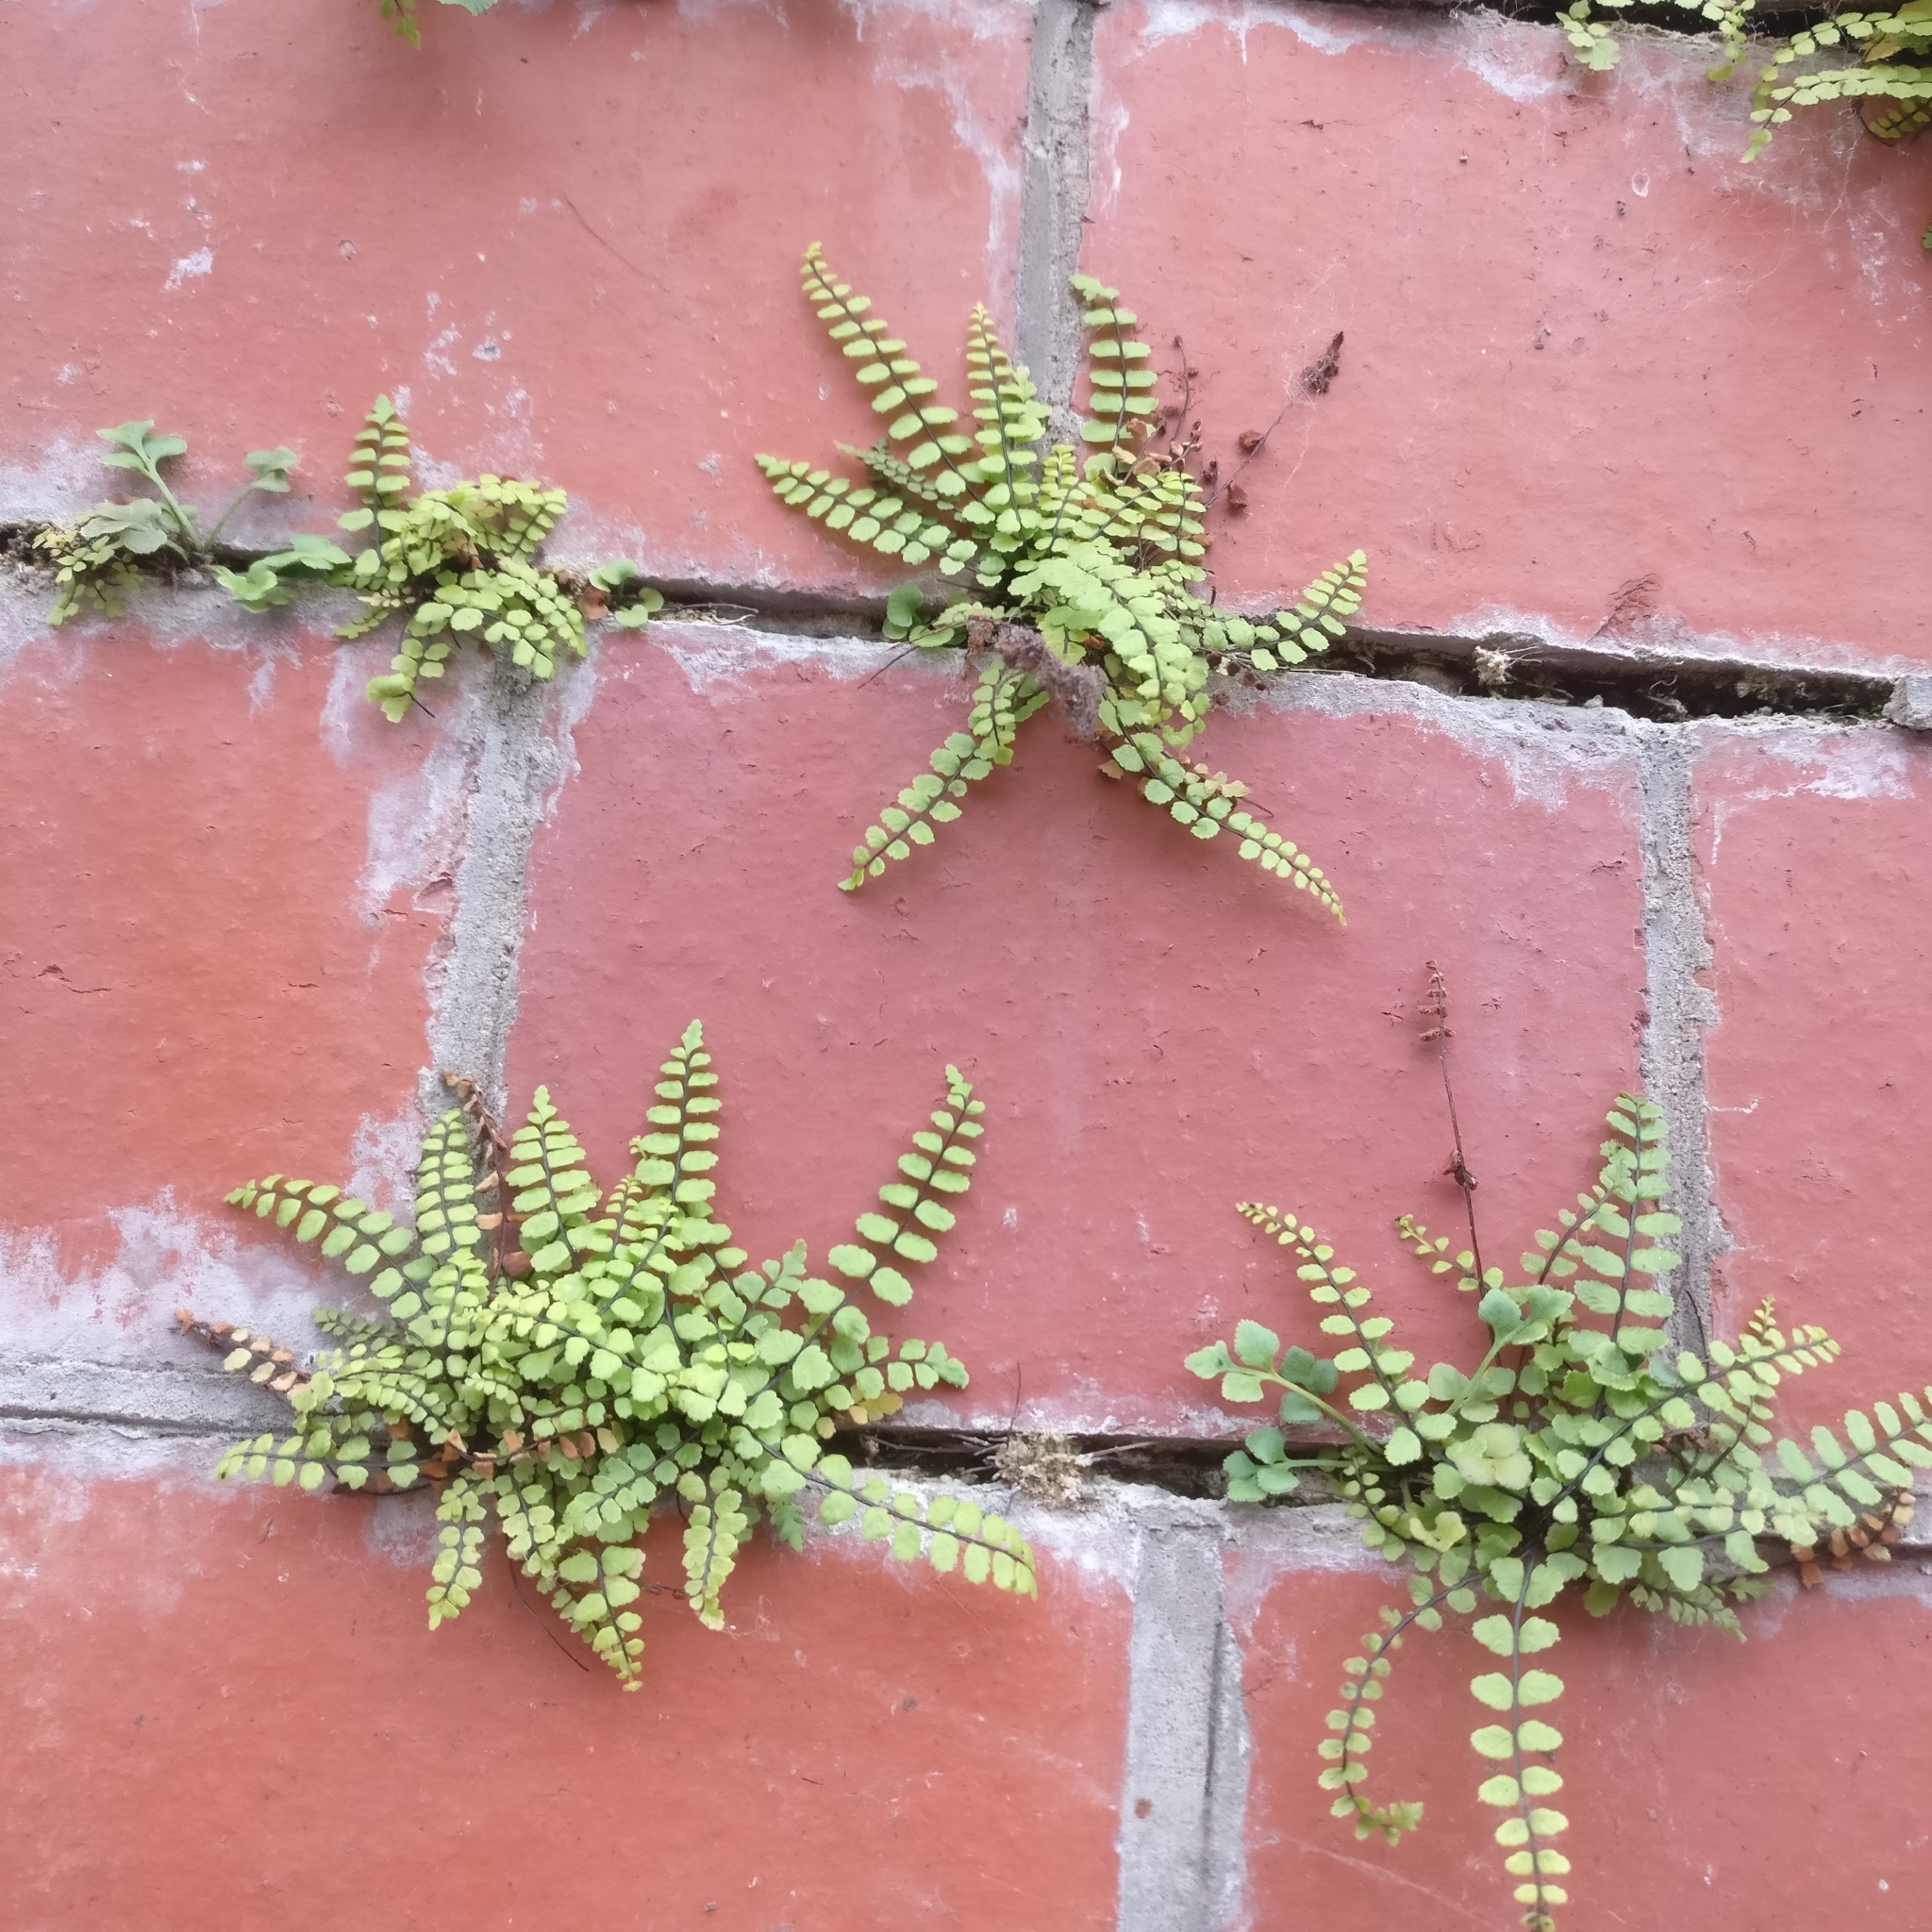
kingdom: Plantae
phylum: Tracheophyta
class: Polypodiopsida
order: Polypodiales
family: Aspleniaceae
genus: Asplenium
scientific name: Asplenium trichomanes
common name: Maidenhair spleenwort
